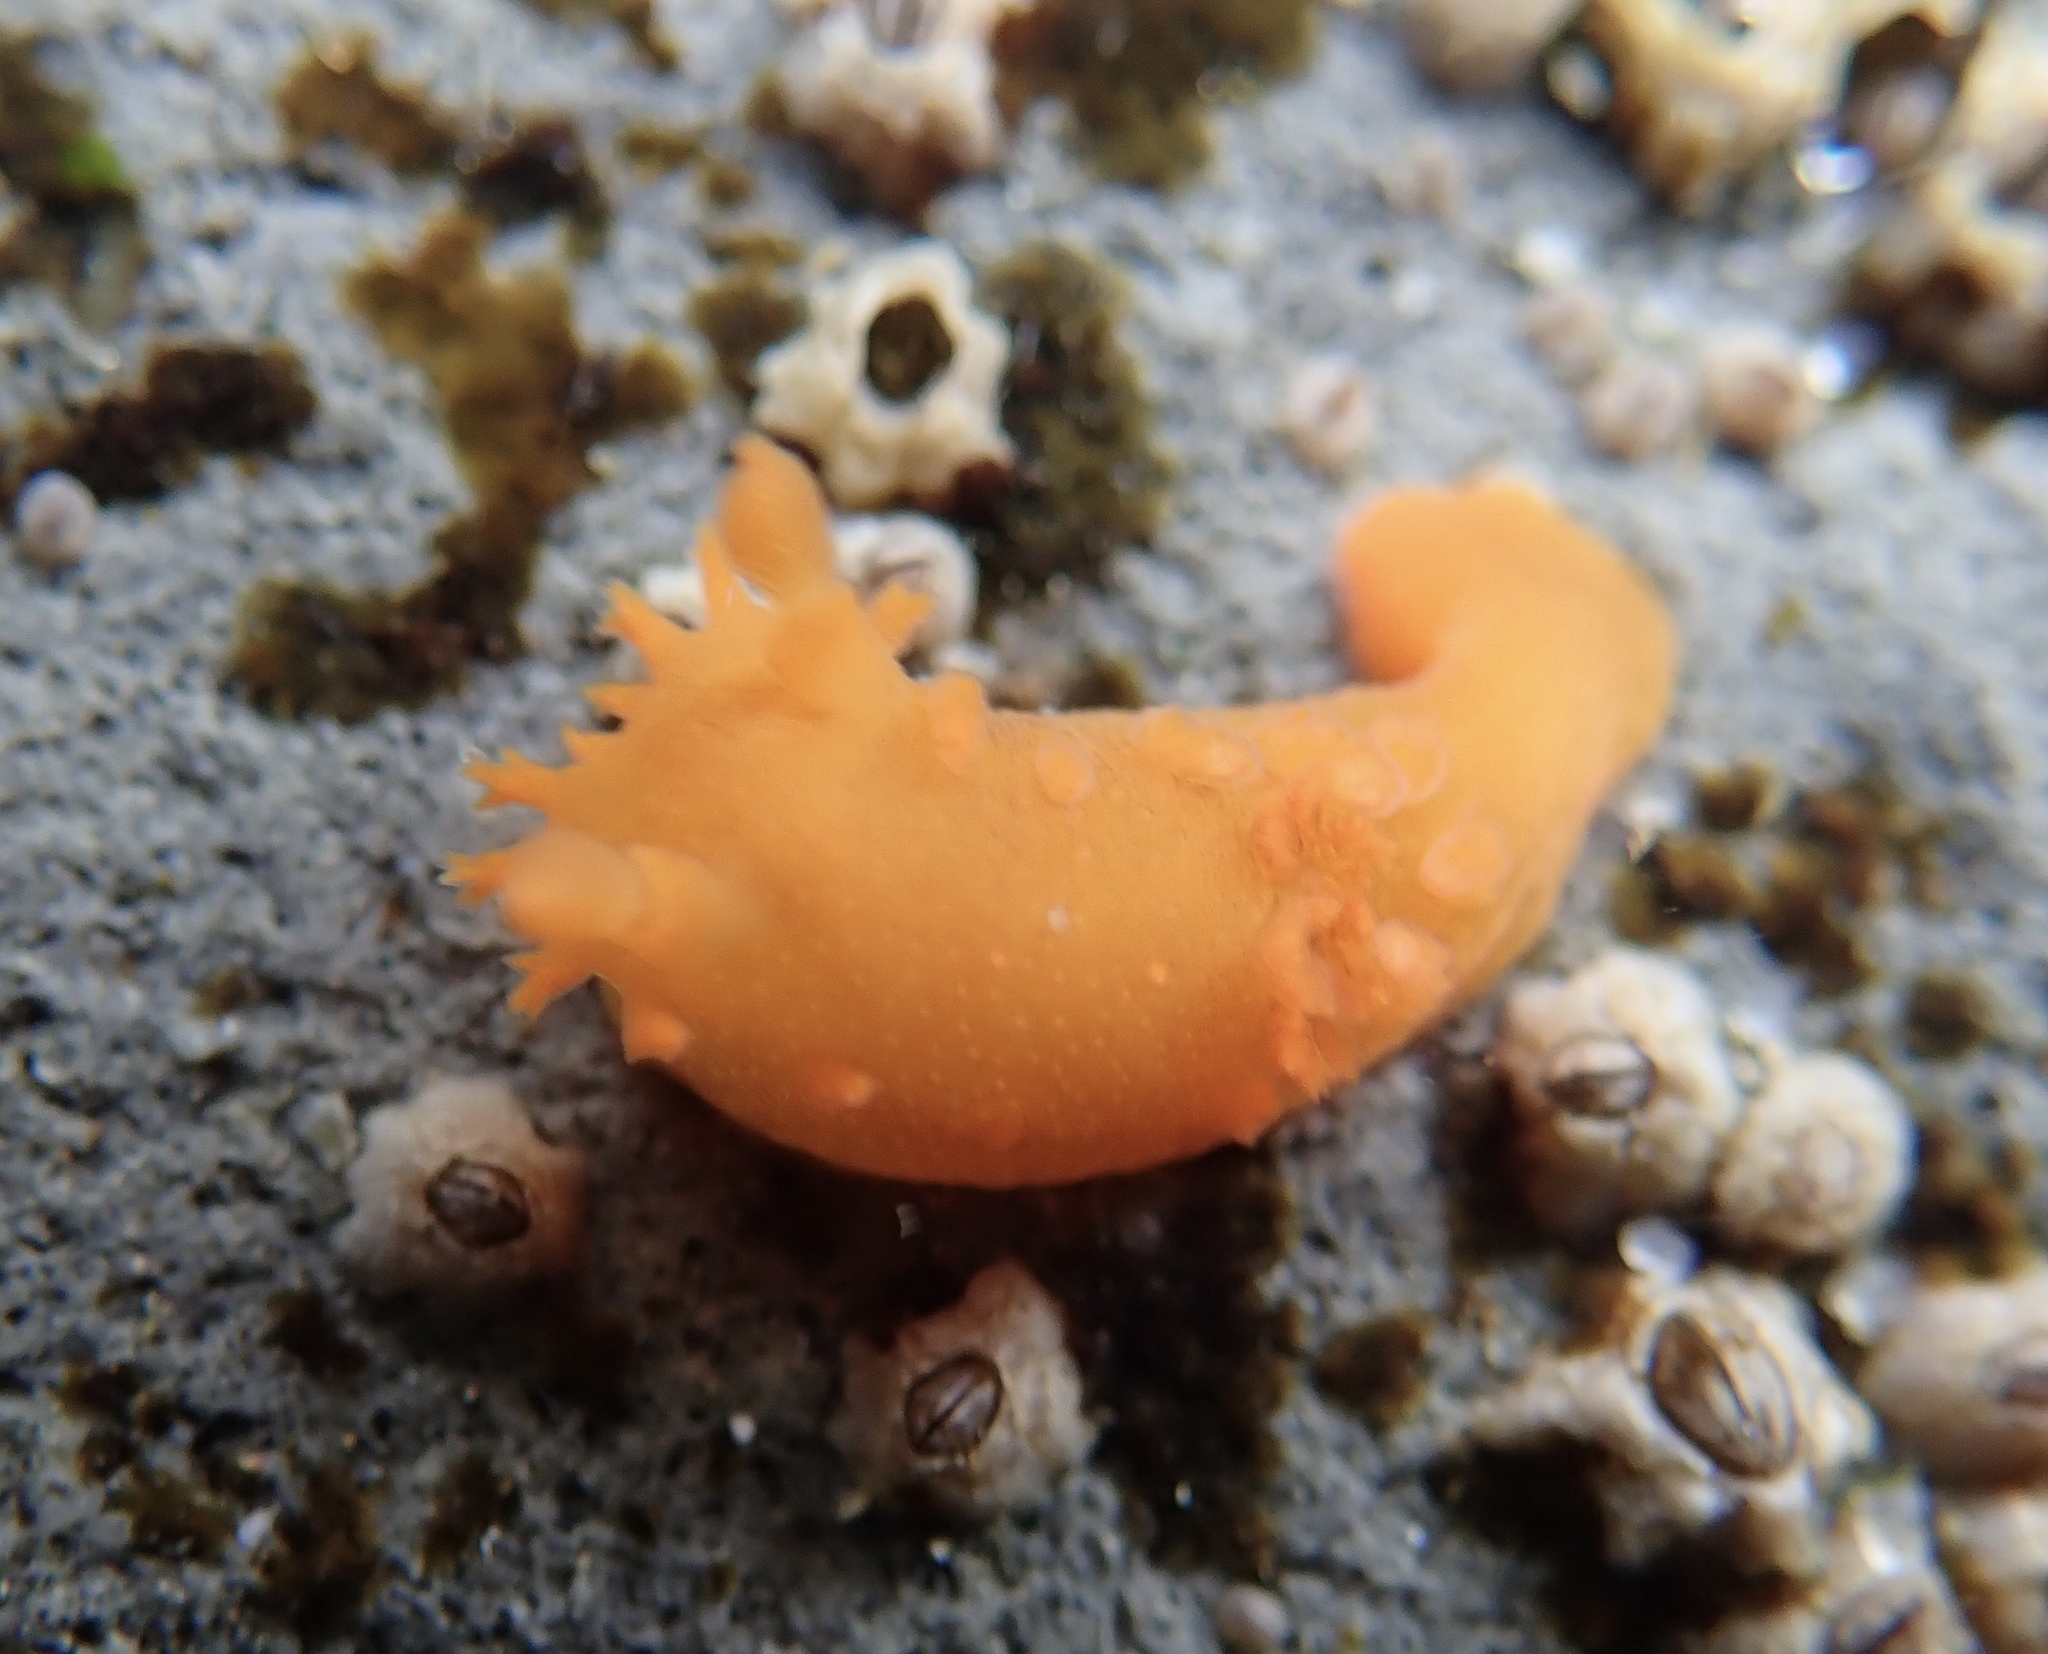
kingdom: Animalia
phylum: Mollusca
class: Gastropoda
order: Nudibranchia
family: Polyceridae
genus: Triopha
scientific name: Triopha maculata
